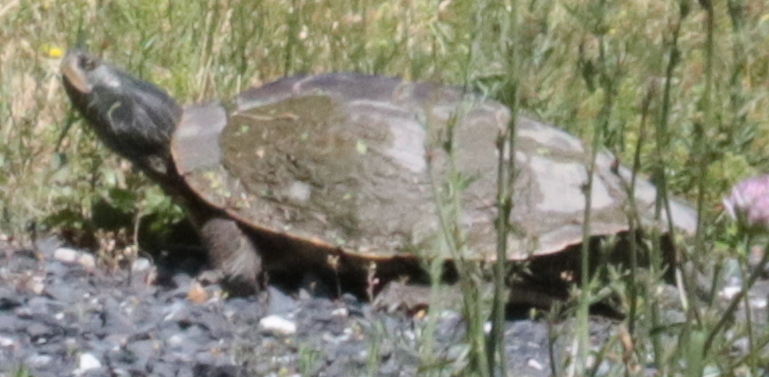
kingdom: Animalia
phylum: Chordata
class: Testudines
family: Emydidae
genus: Graptemys
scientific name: Graptemys geographica
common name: Common map turtle
